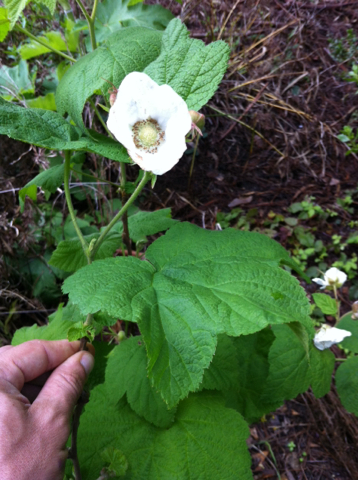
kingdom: Plantae
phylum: Tracheophyta
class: Magnoliopsida
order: Rosales
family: Rosaceae
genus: Rubus
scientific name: Rubus parviflorus
